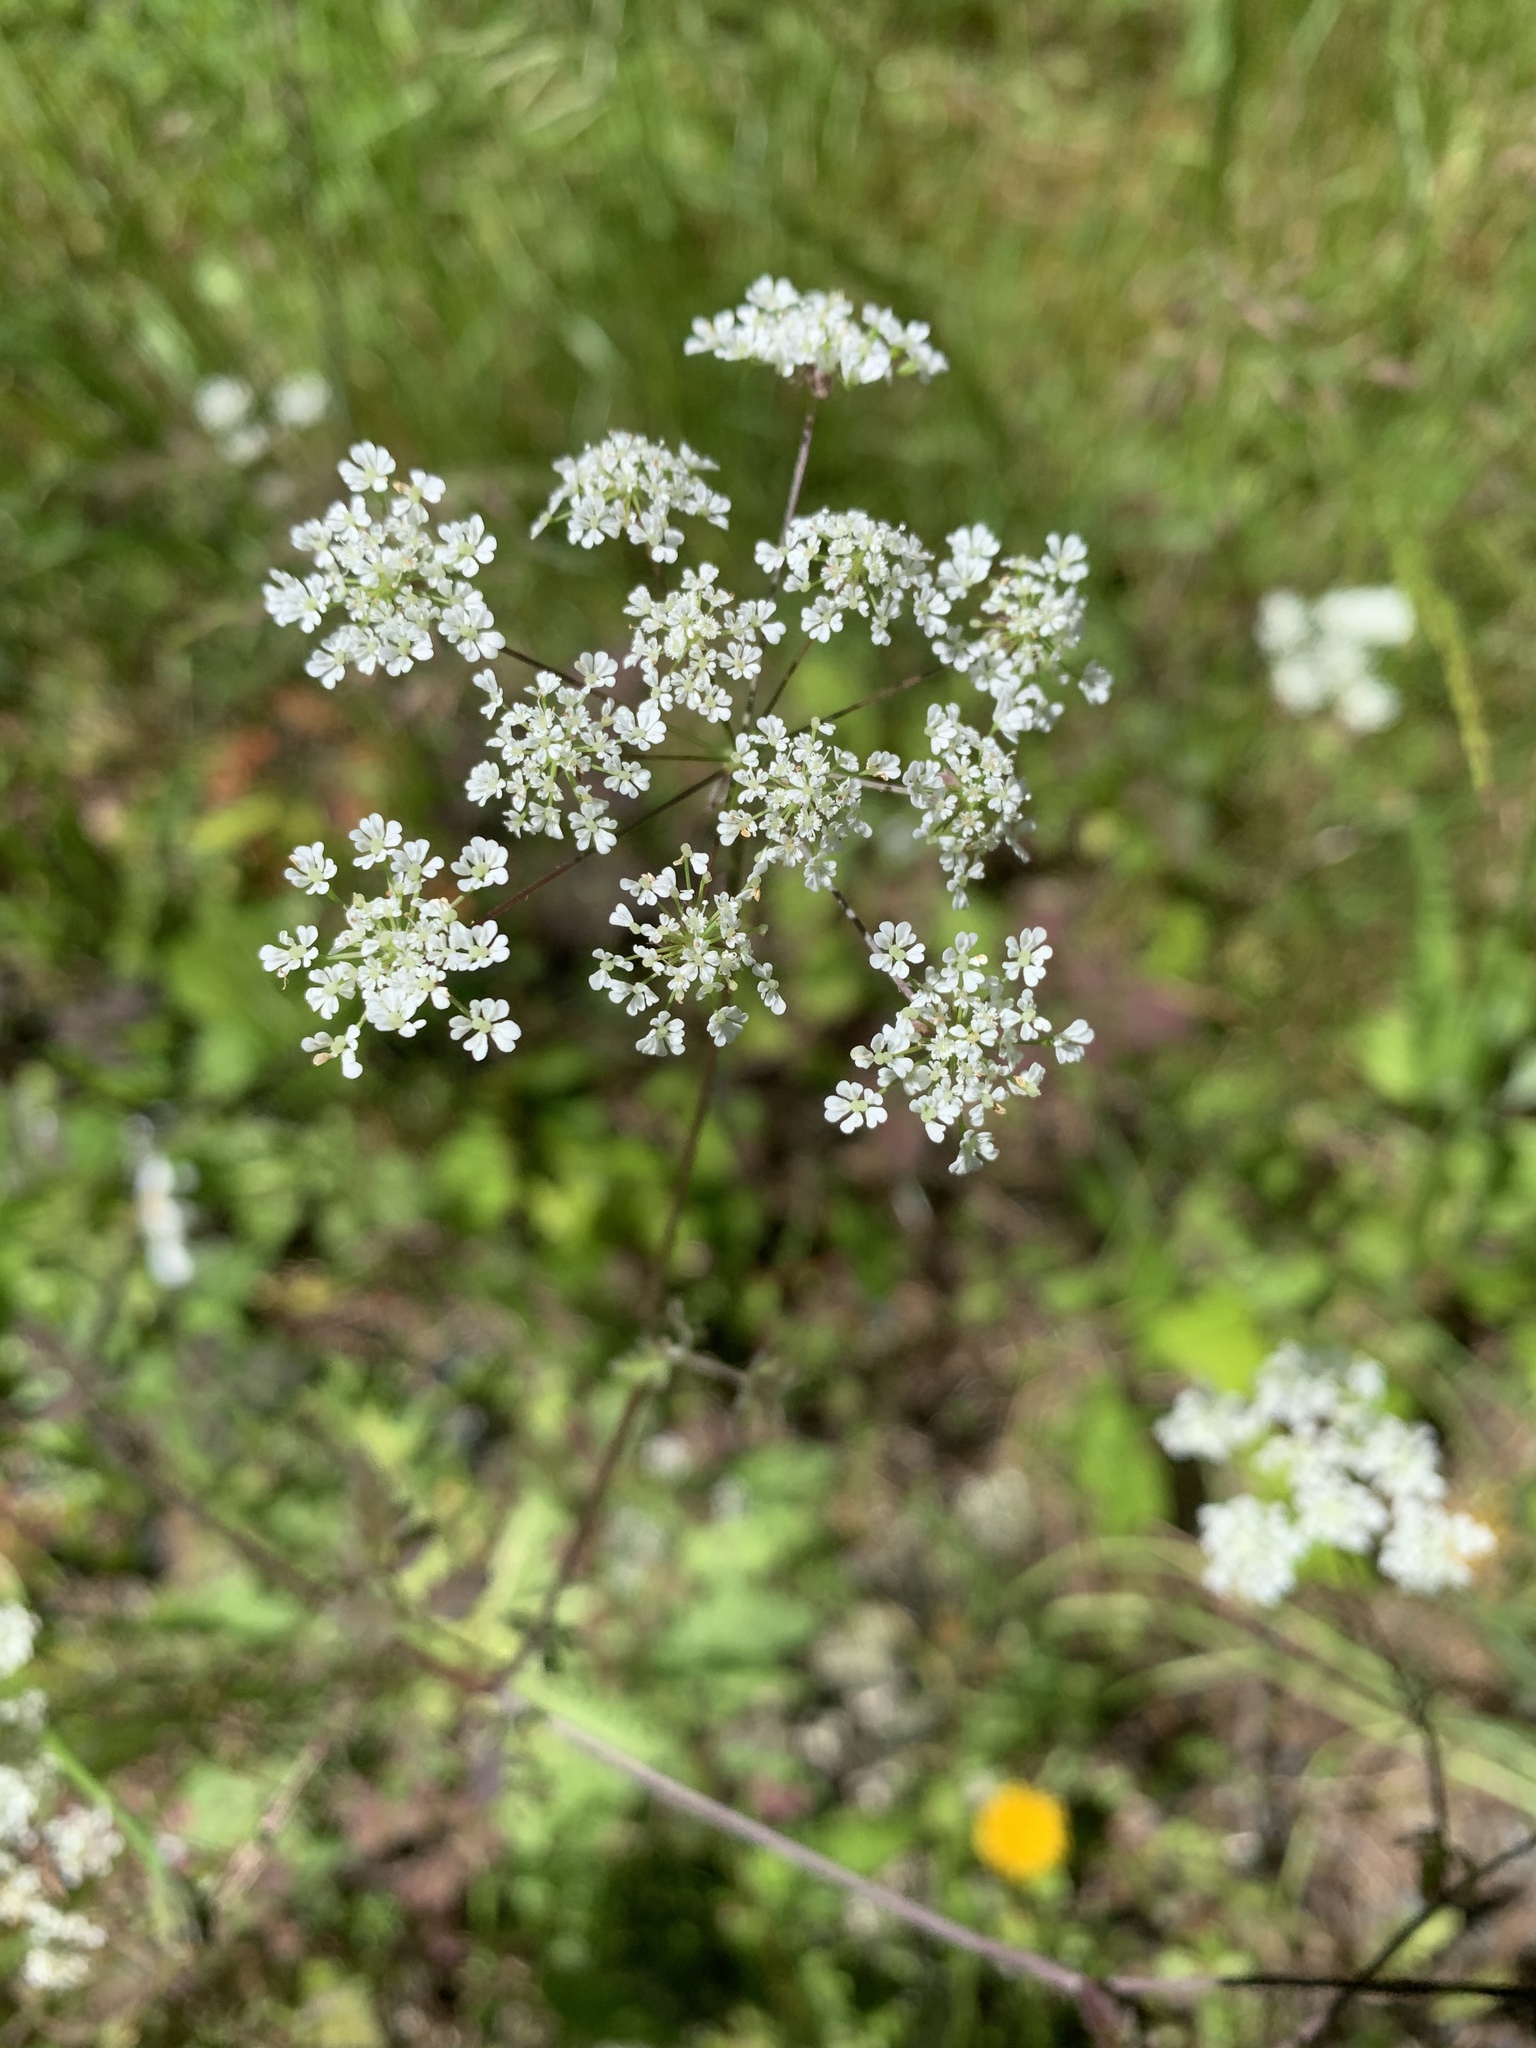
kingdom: Plantae
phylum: Tracheophyta
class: Magnoliopsida
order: Apiales
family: Apiaceae
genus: Chaerophyllum
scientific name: Chaerophyllum temulum
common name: Rough chervil
